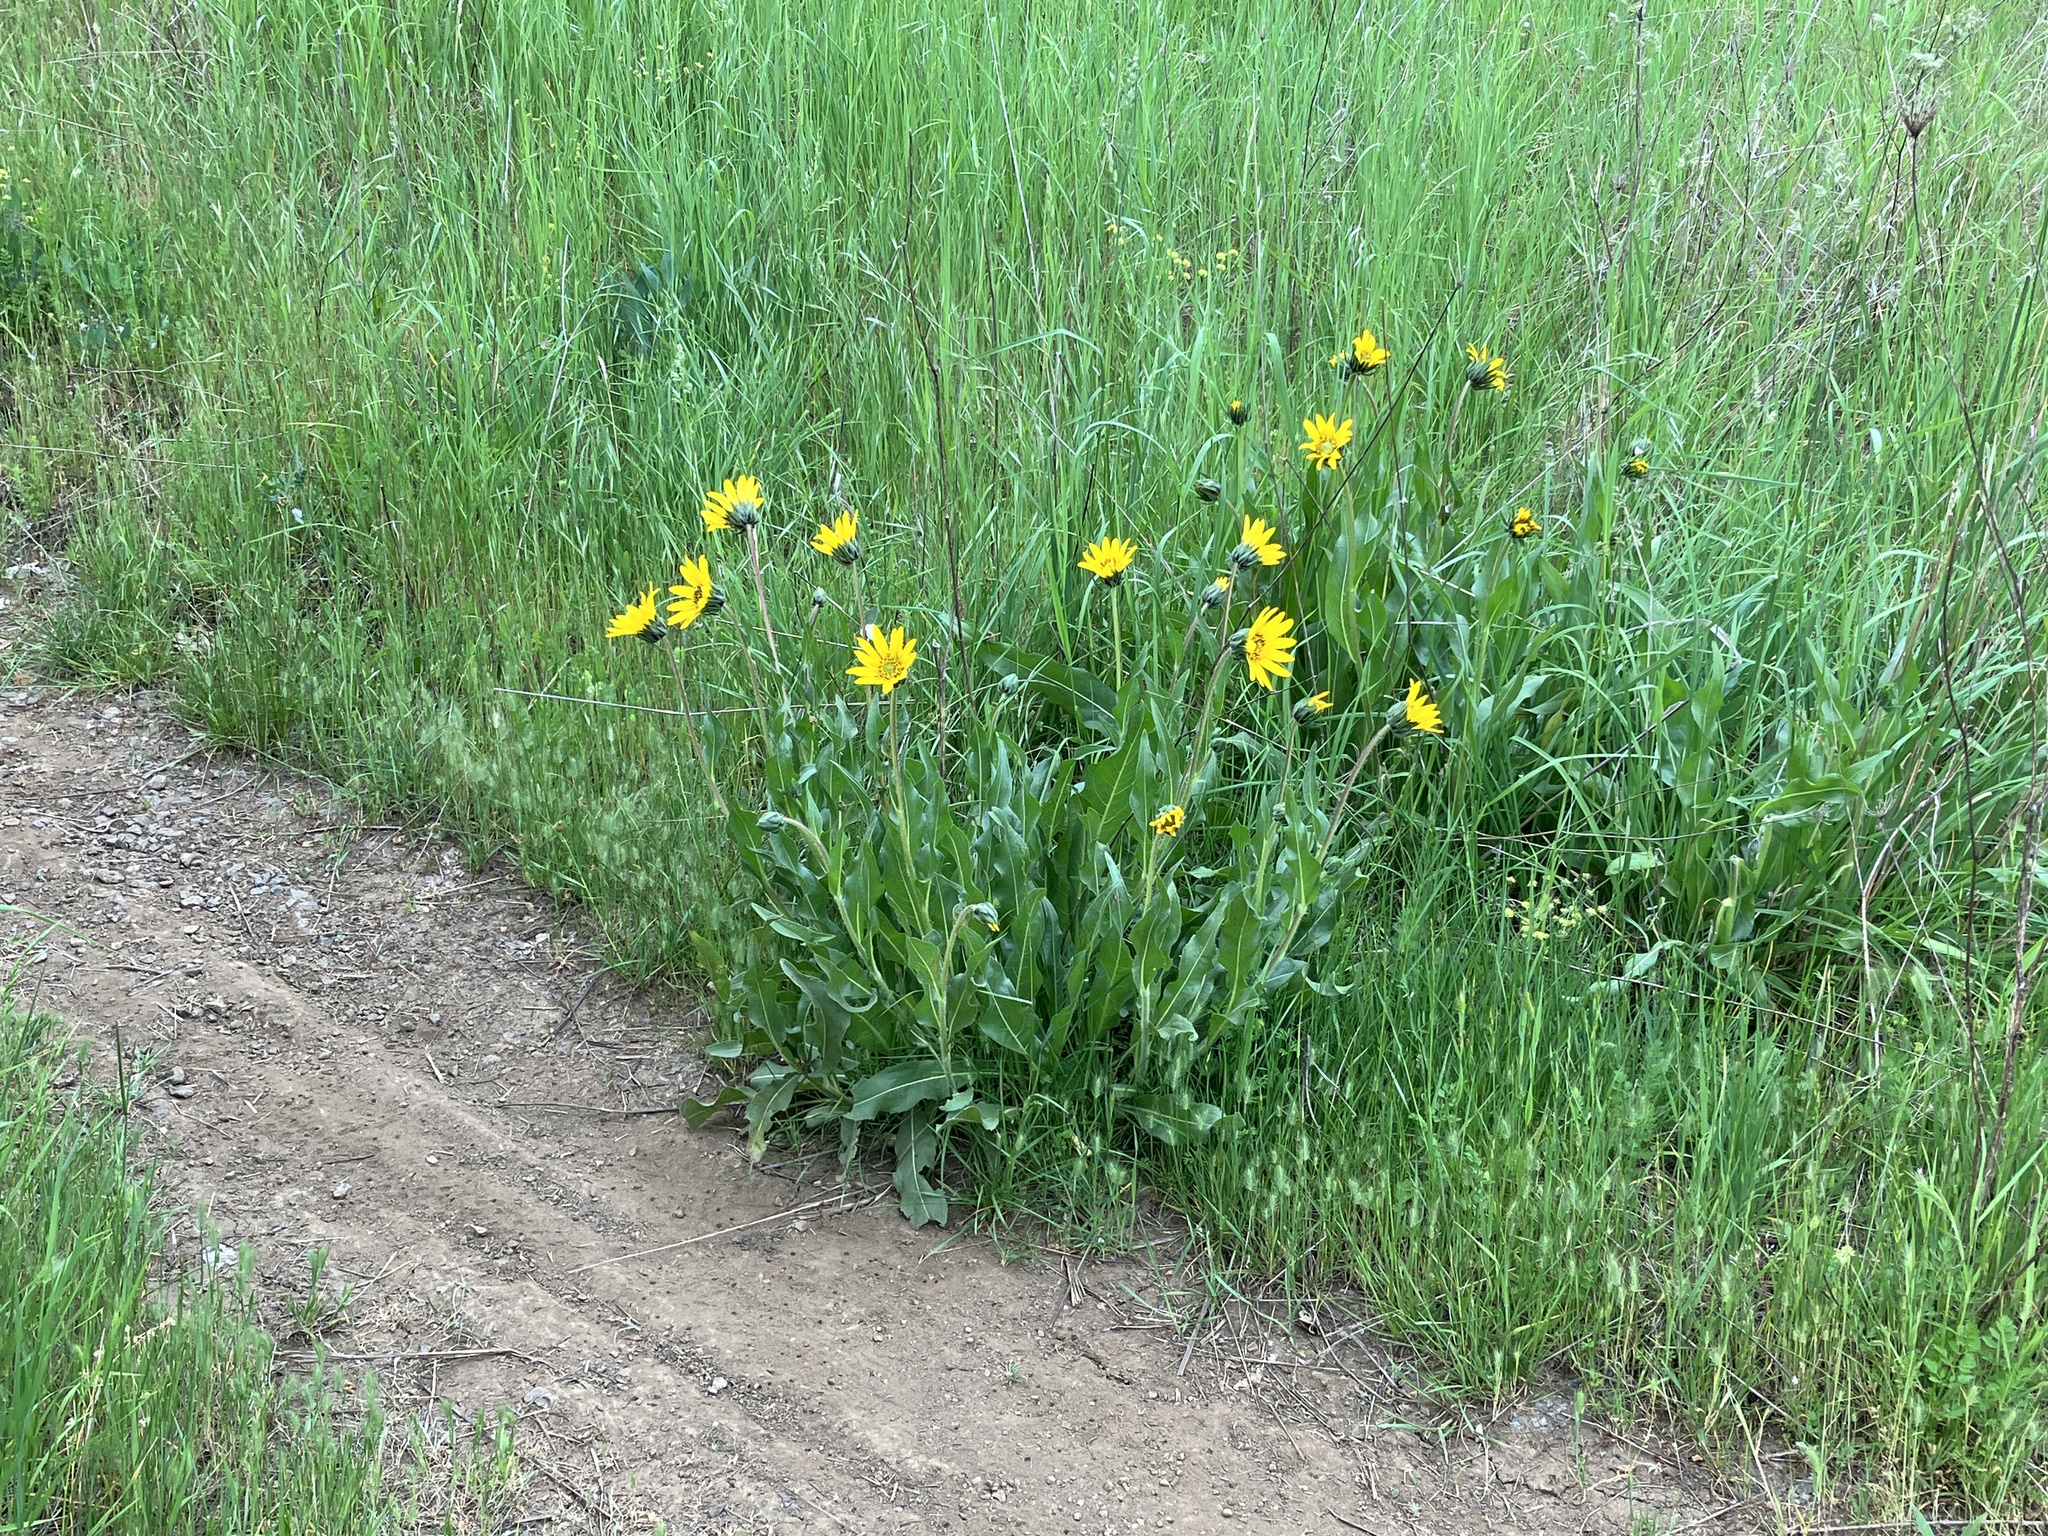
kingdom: Plantae
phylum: Tracheophyta
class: Magnoliopsida
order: Asterales
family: Asteraceae
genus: Wyethia
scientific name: Wyethia angustifolia
